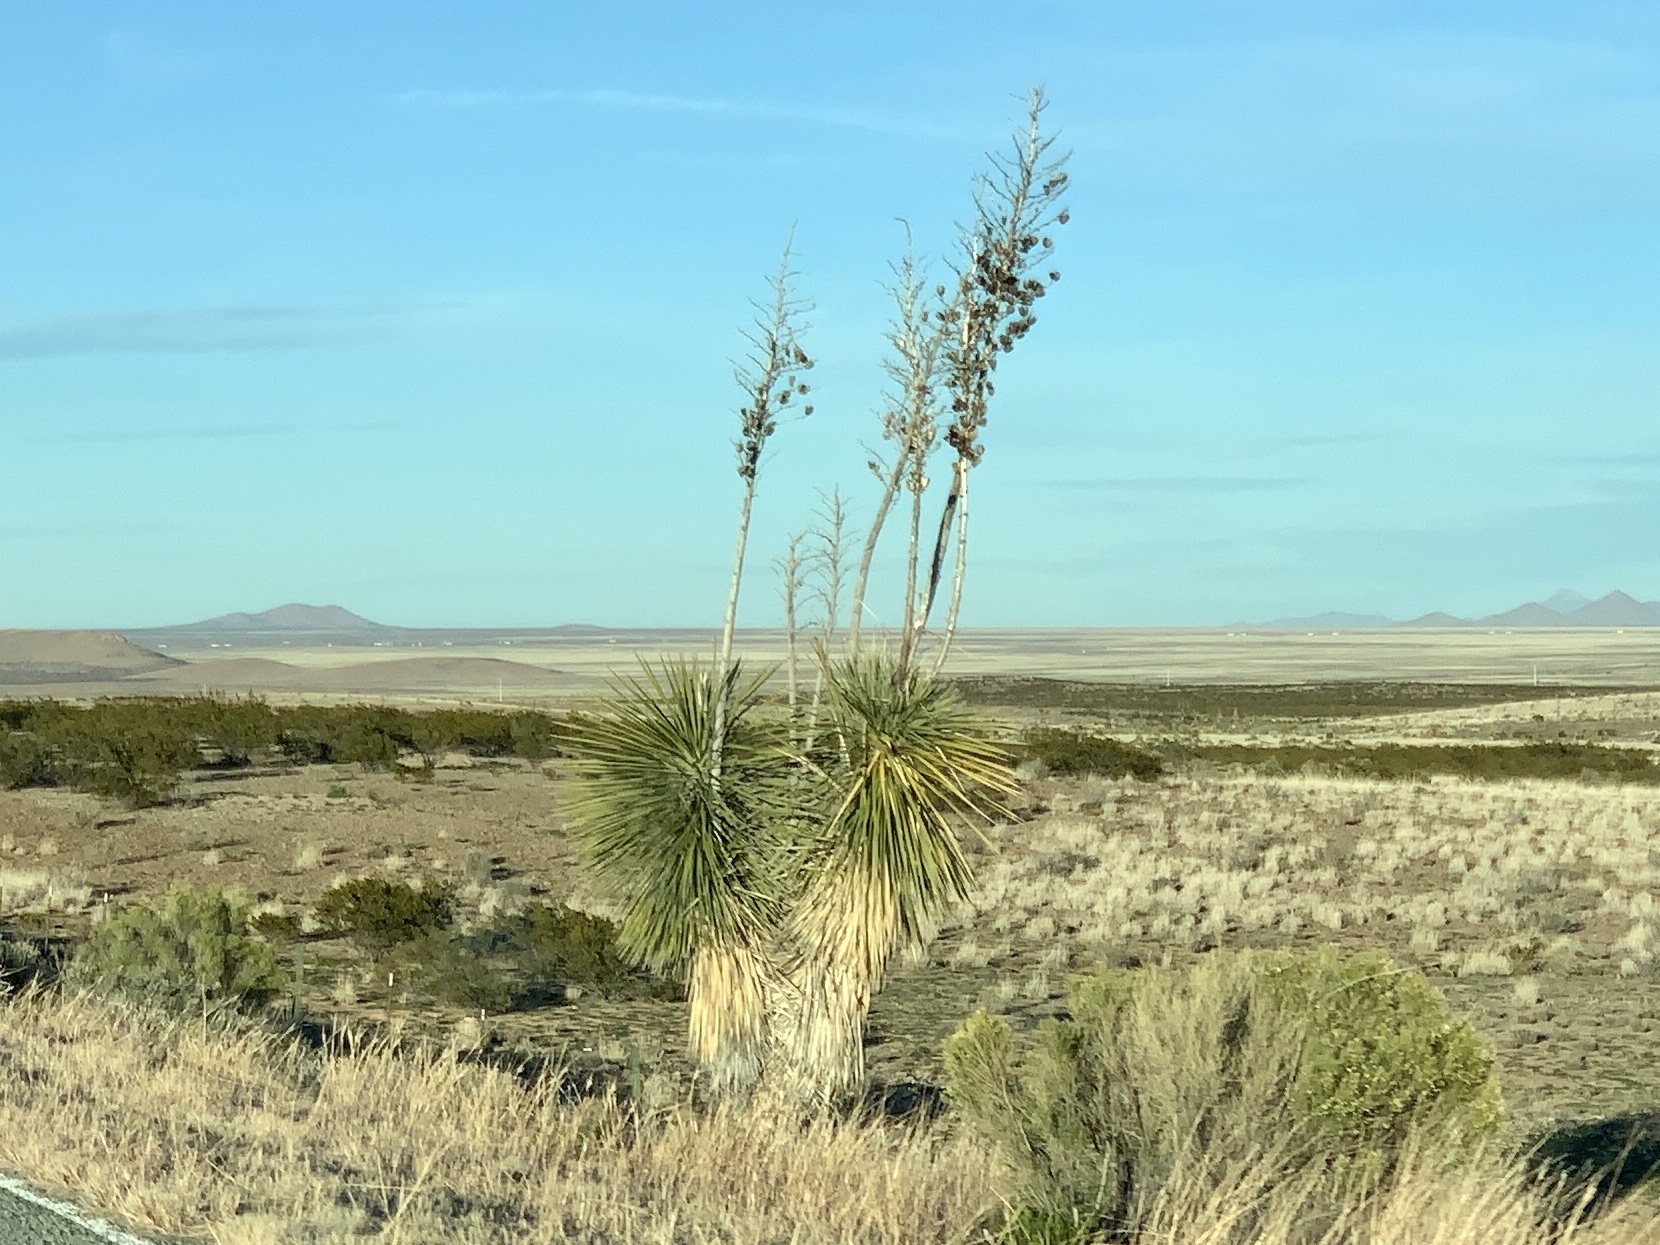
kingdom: Plantae
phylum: Tracheophyta
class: Liliopsida
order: Asparagales
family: Asparagaceae
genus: Yucca
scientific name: Yucca elata
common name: Palmella
